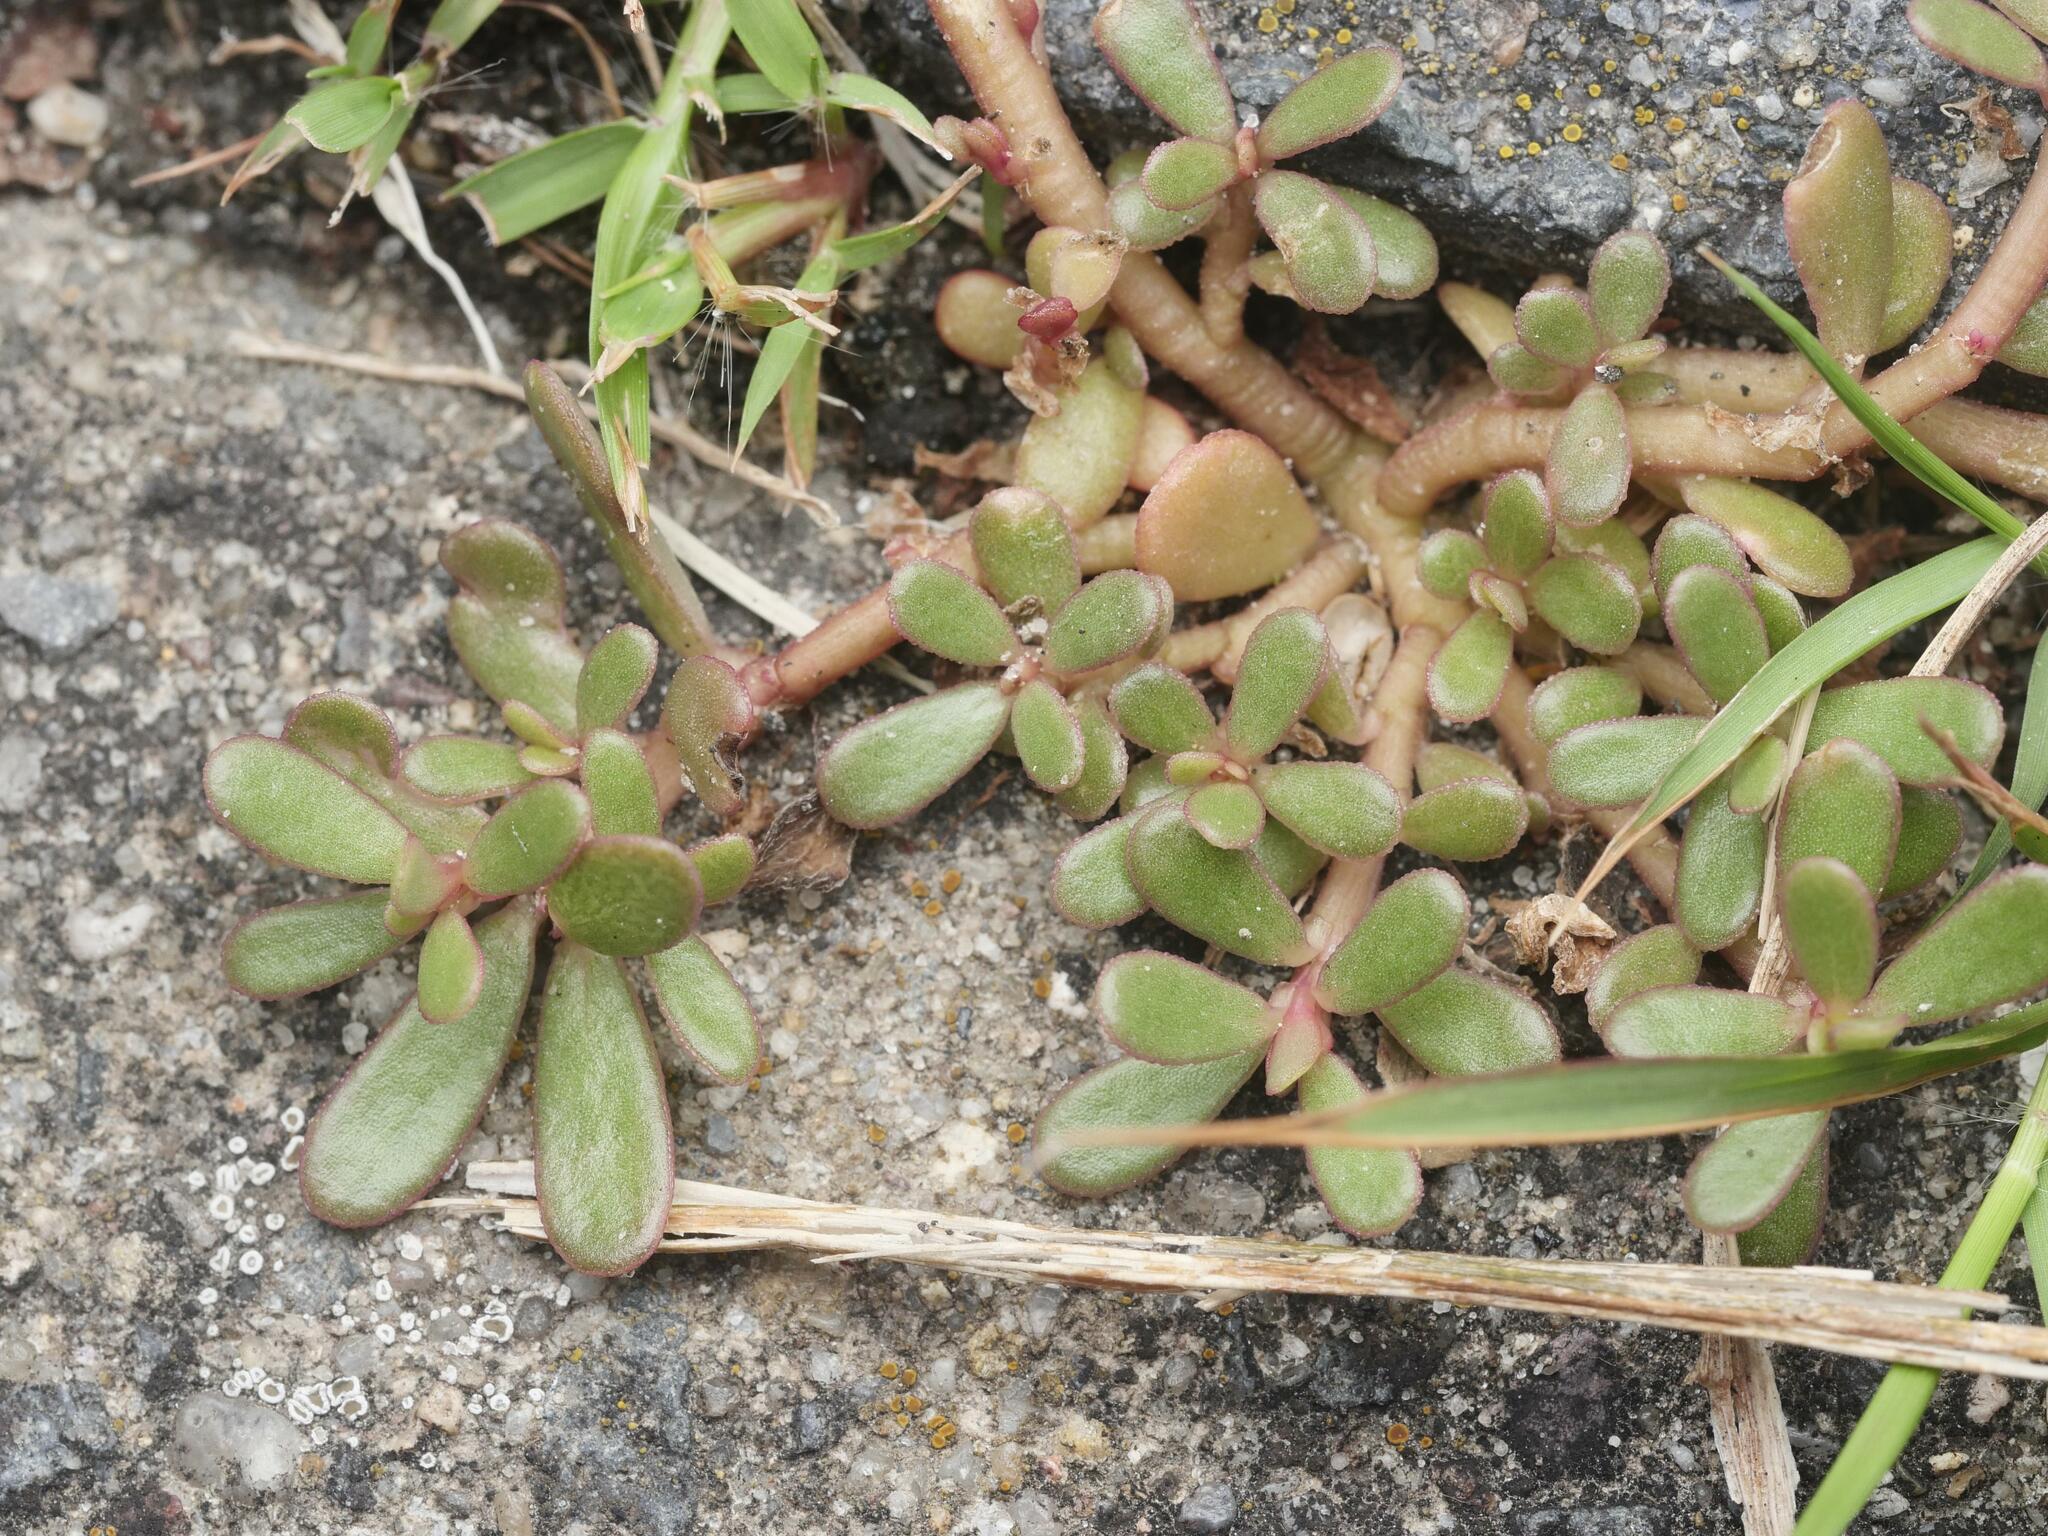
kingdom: Plantae
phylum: Tracheophyta
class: Magnoliopsida
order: Caryophyllales
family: Portulacaceae
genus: Portulaca
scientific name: Portulaca oleracea
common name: Common purslane
